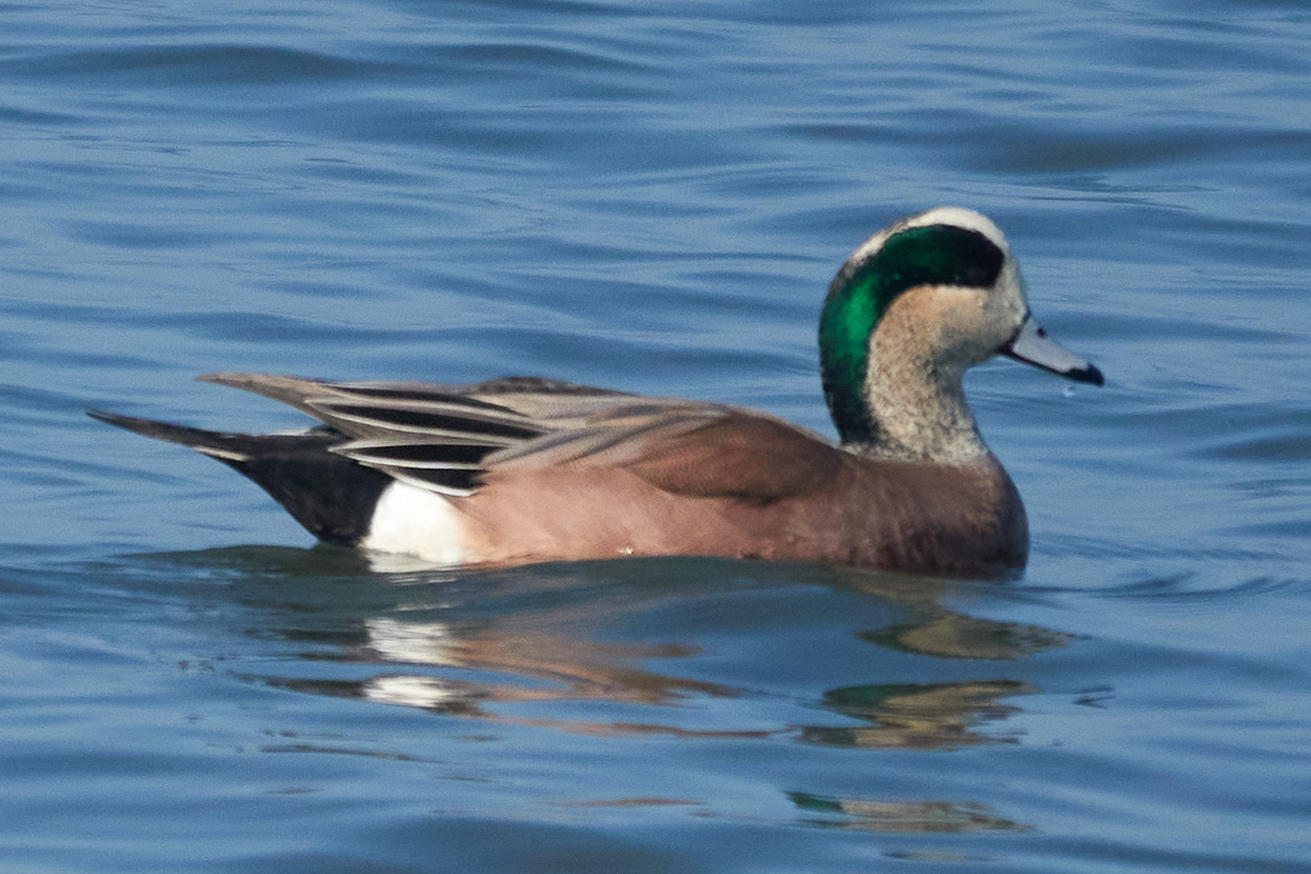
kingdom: Animalia
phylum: Chordata
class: Aves
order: Anseriformes
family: Anatidae
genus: Mareca
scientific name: Mareca americana
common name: American wigeon
